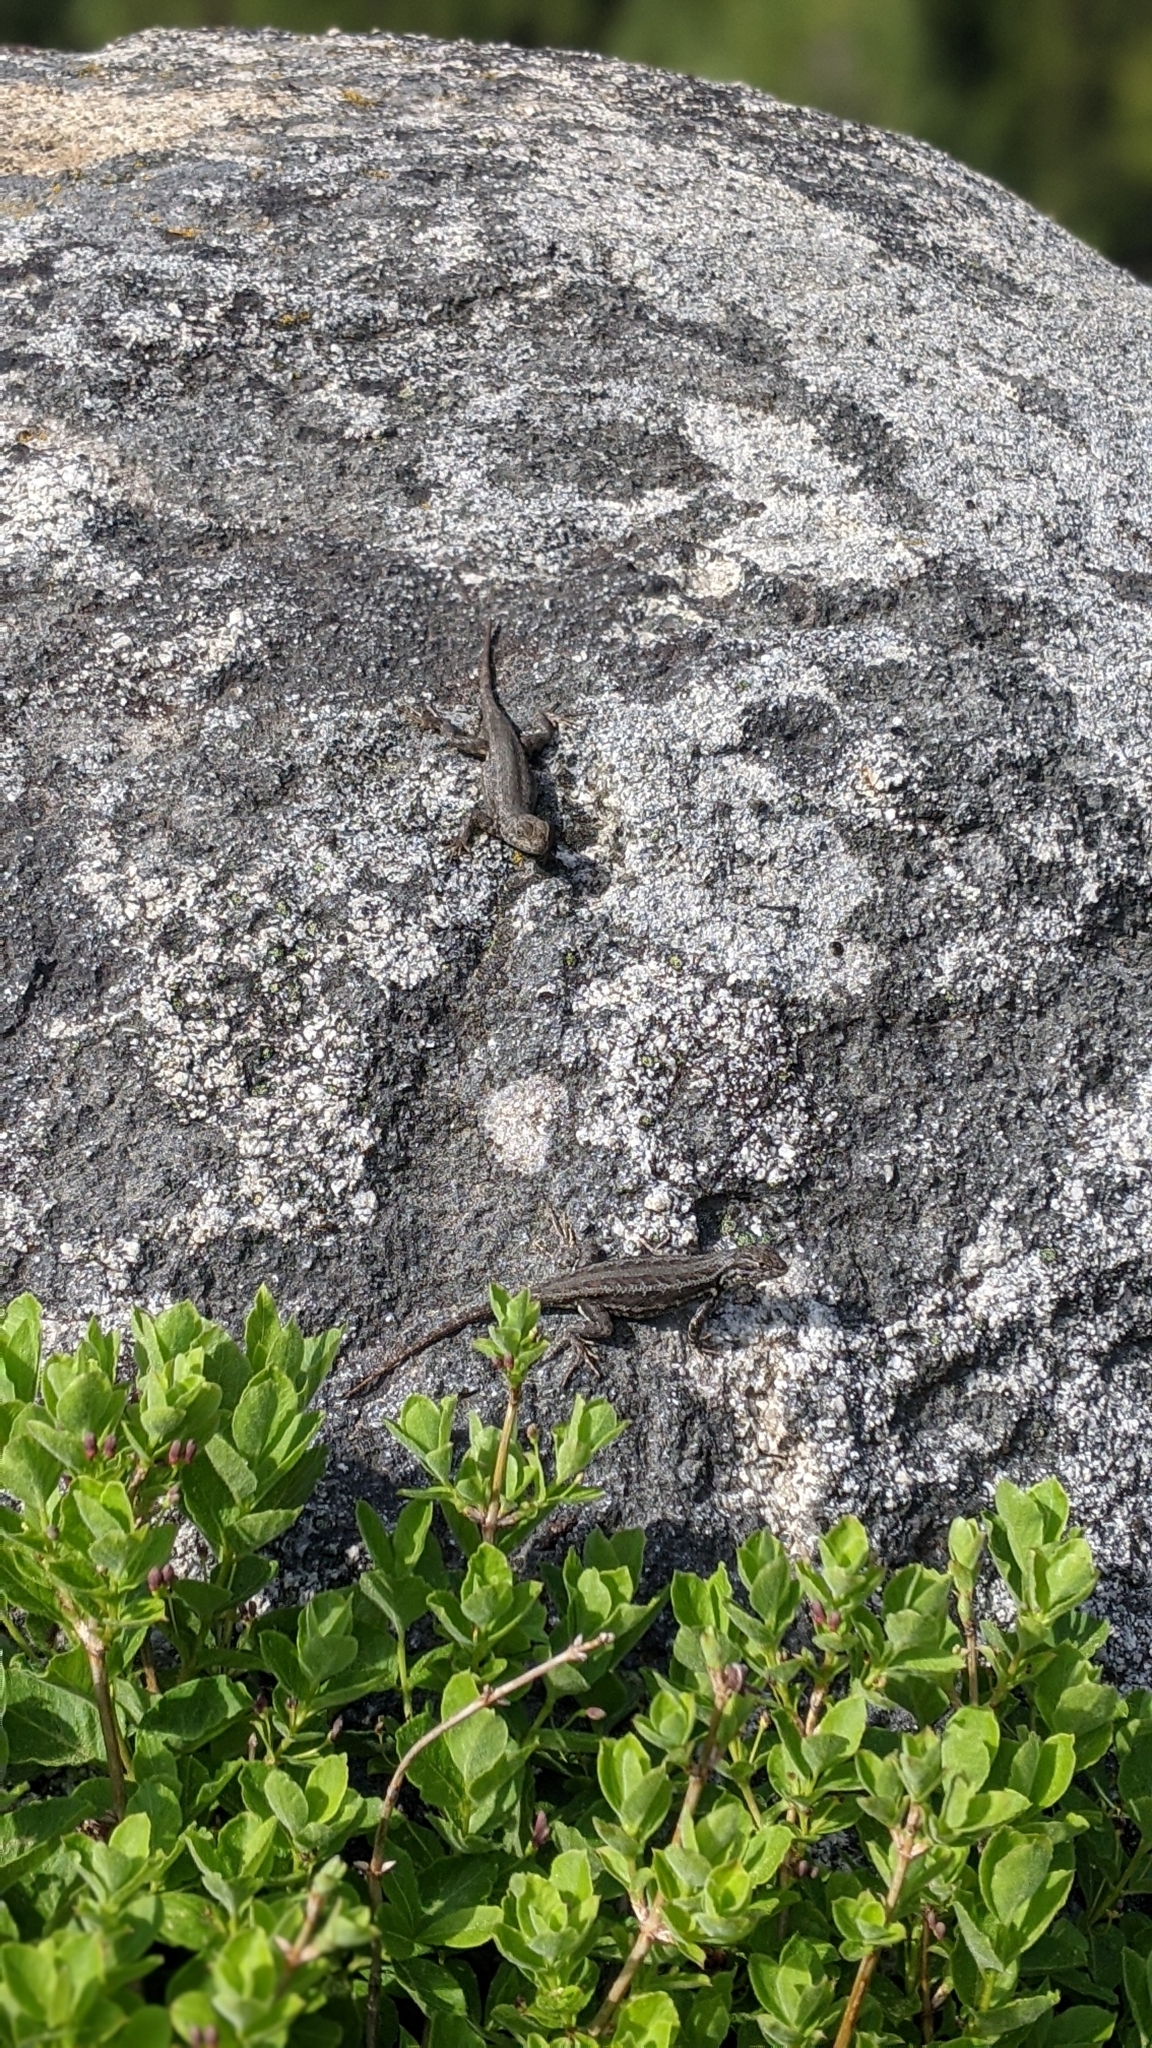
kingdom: Animalia
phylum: Chordata
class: Squamata
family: Phrynosomatidae
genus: Sceloporus
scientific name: Sceloporus graciosus
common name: Sagebrush lizard
